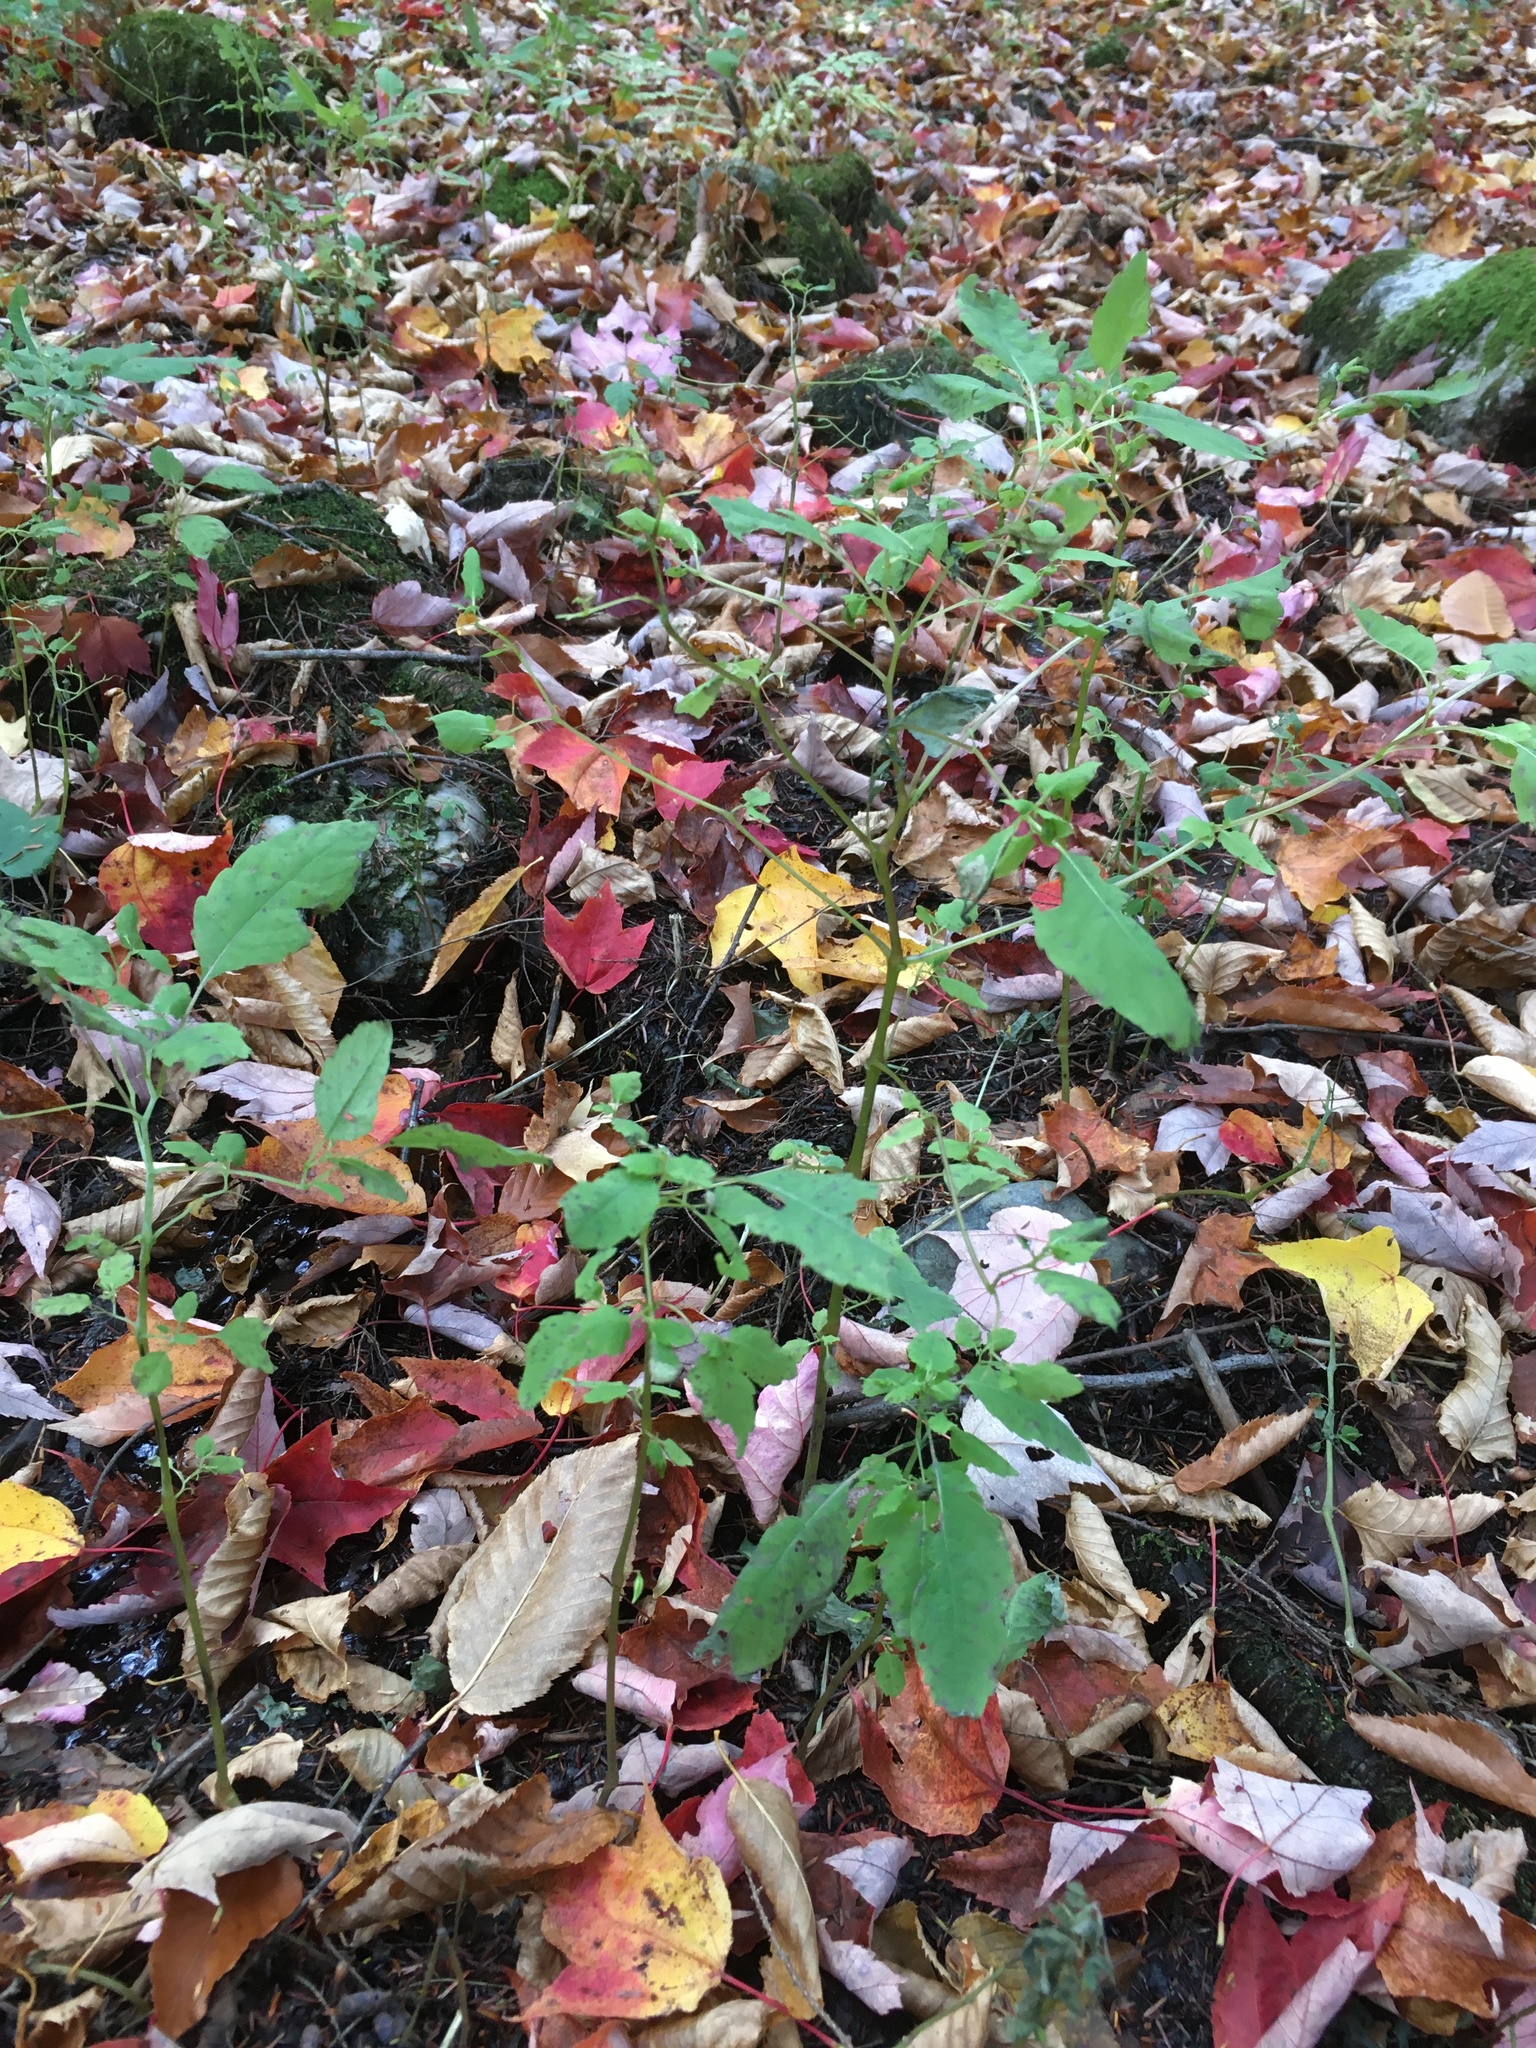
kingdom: Plantae
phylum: Tracheophyta
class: Magnoliopsida
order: Ericales
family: Balsaminaceae
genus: Impatiens
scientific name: Impatiens capensis
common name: Orange balsam
